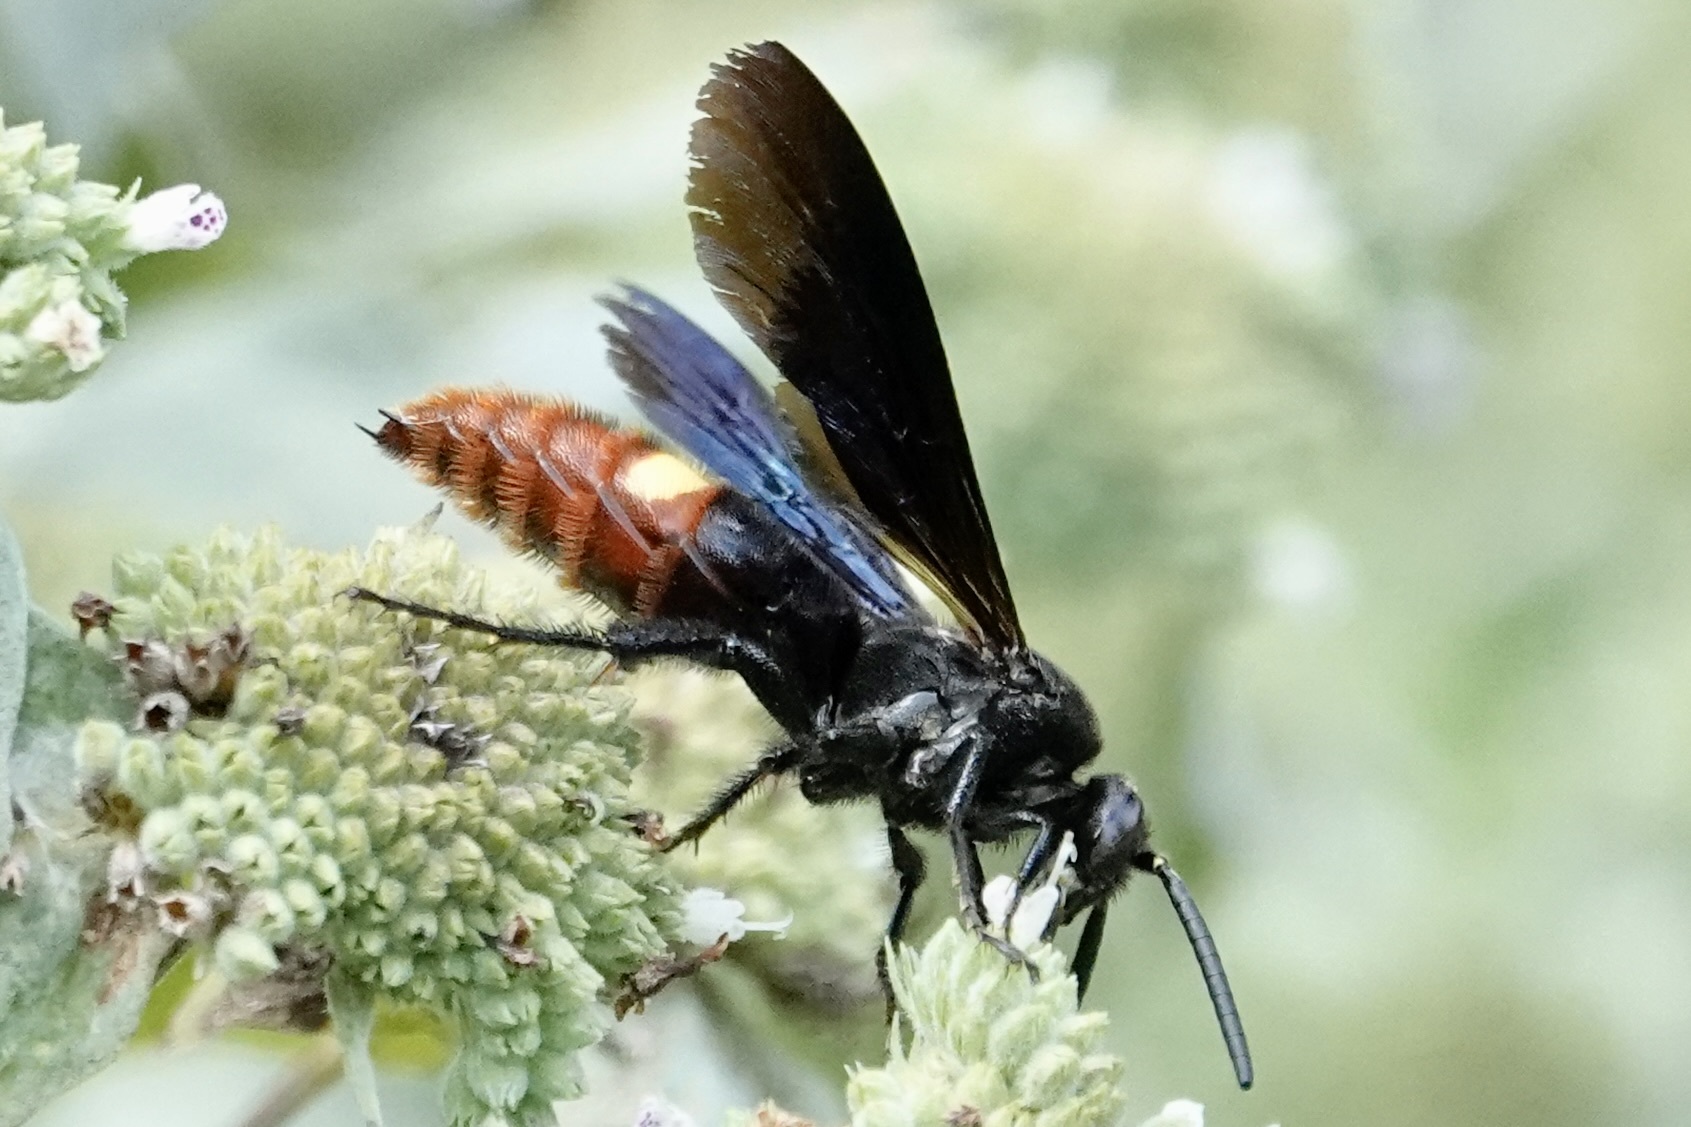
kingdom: Animalia
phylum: Arthropoda
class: Insecta
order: Hymenoptera
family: Scoliidae
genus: Scolia
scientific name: Scolia dubia
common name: Blue-winged scoliid wasp
